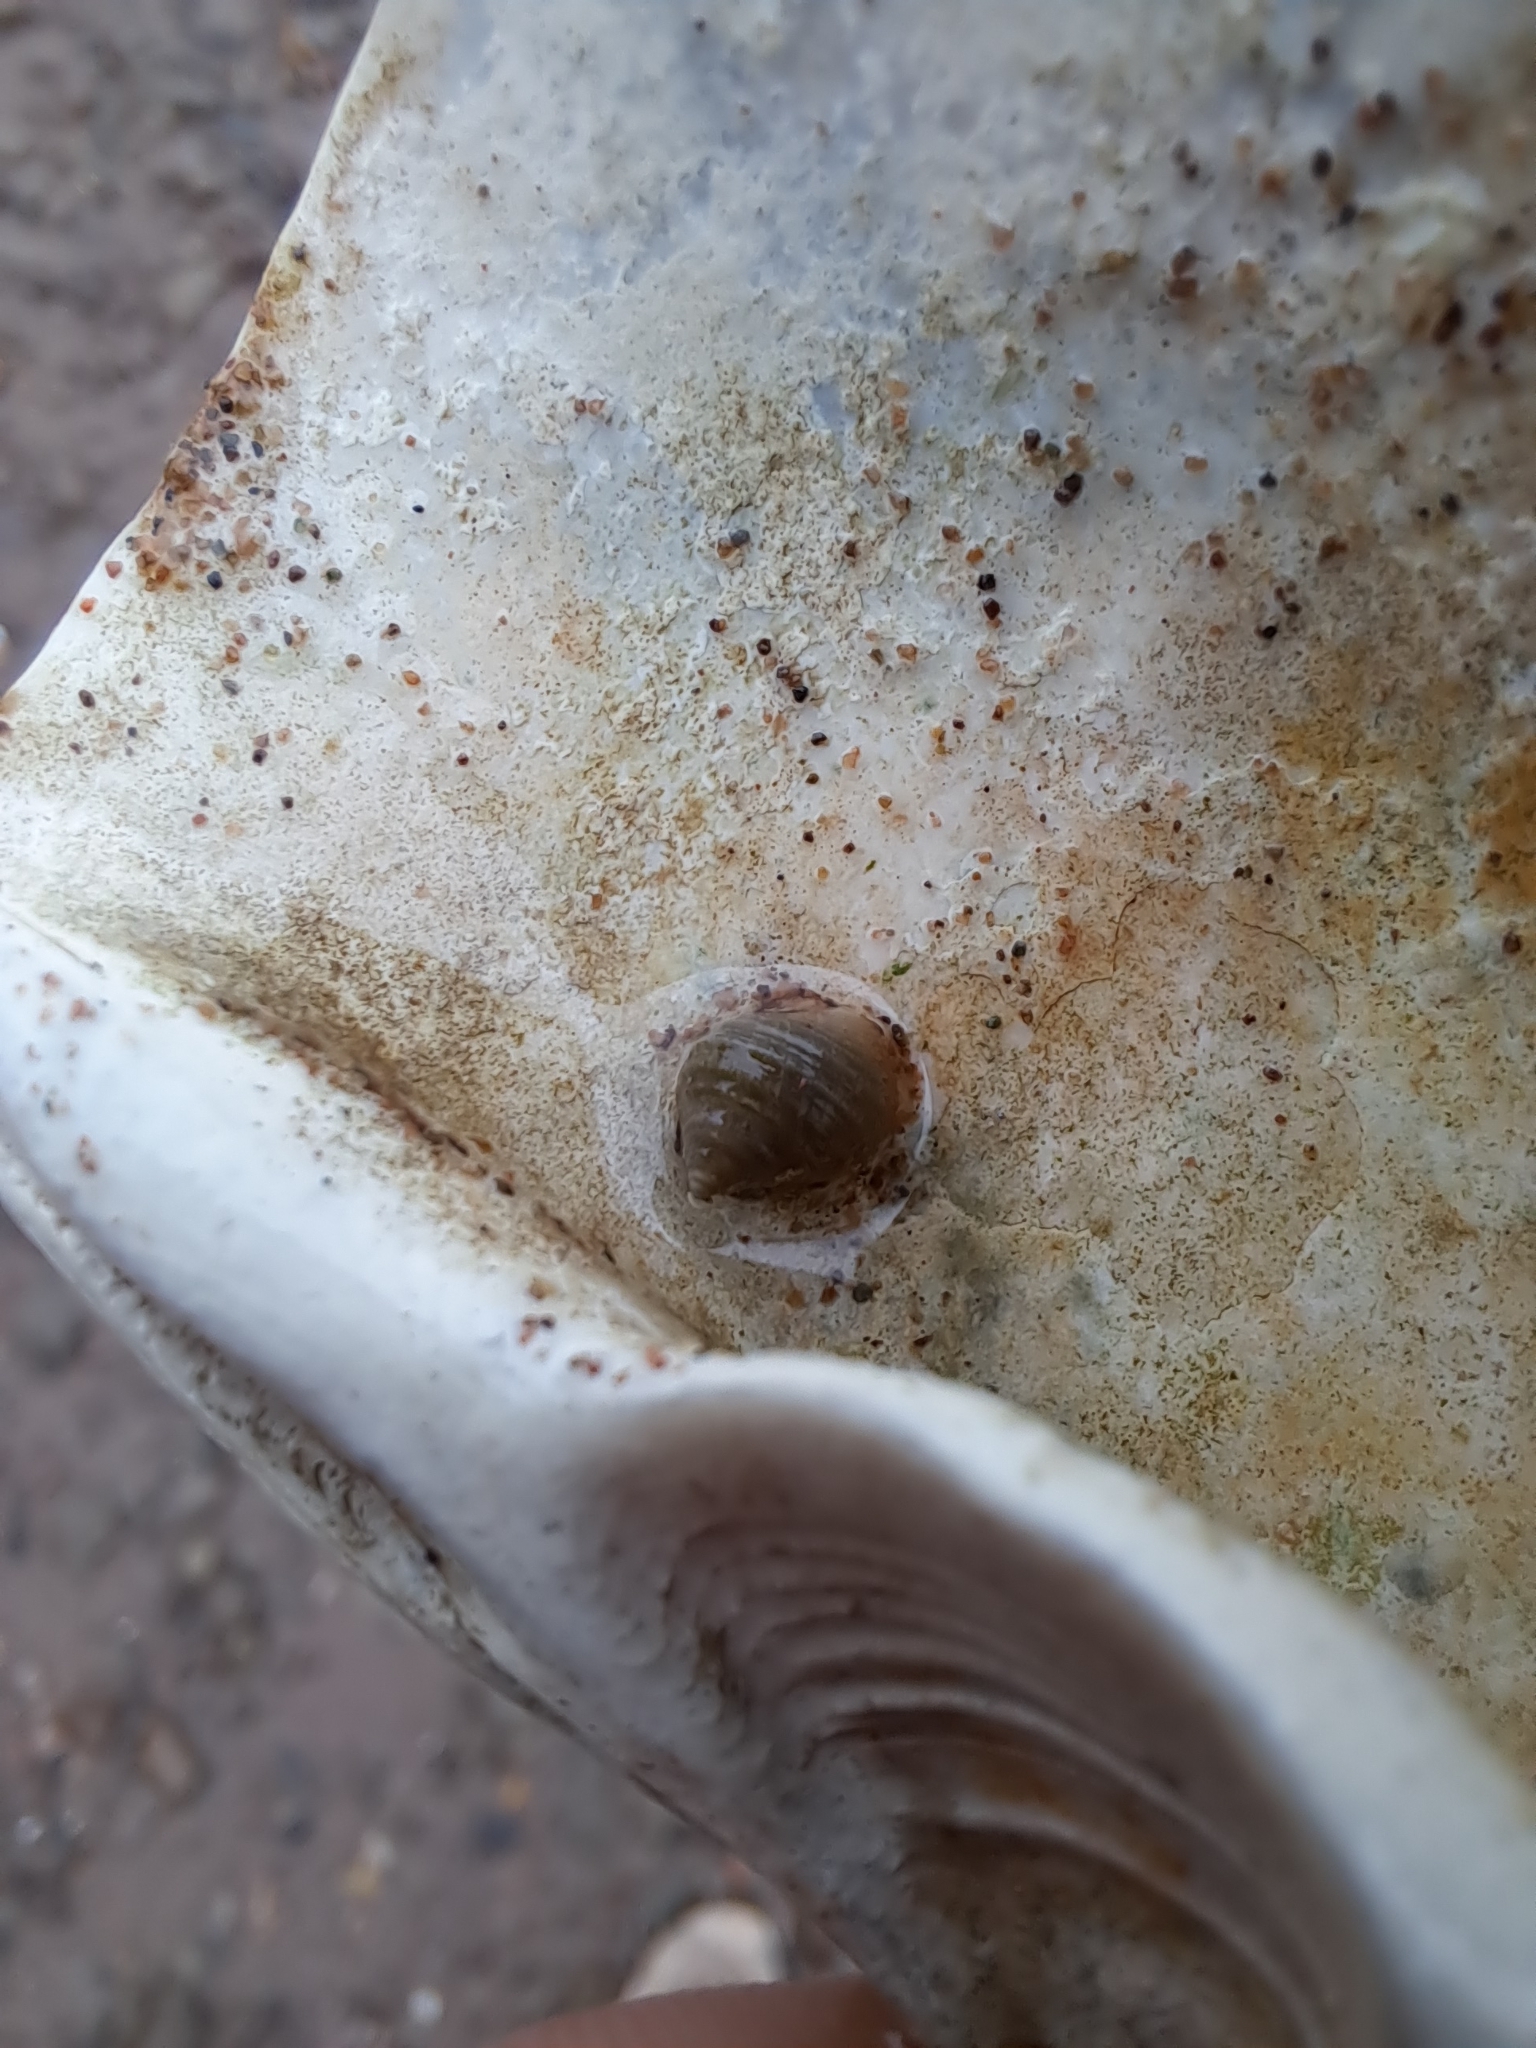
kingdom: Animalia
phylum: Mollusca
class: Gastropoda
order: Littorinimorpha
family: Littorinidae
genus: Littorina
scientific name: Littorina littorea
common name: Common periwinkle
